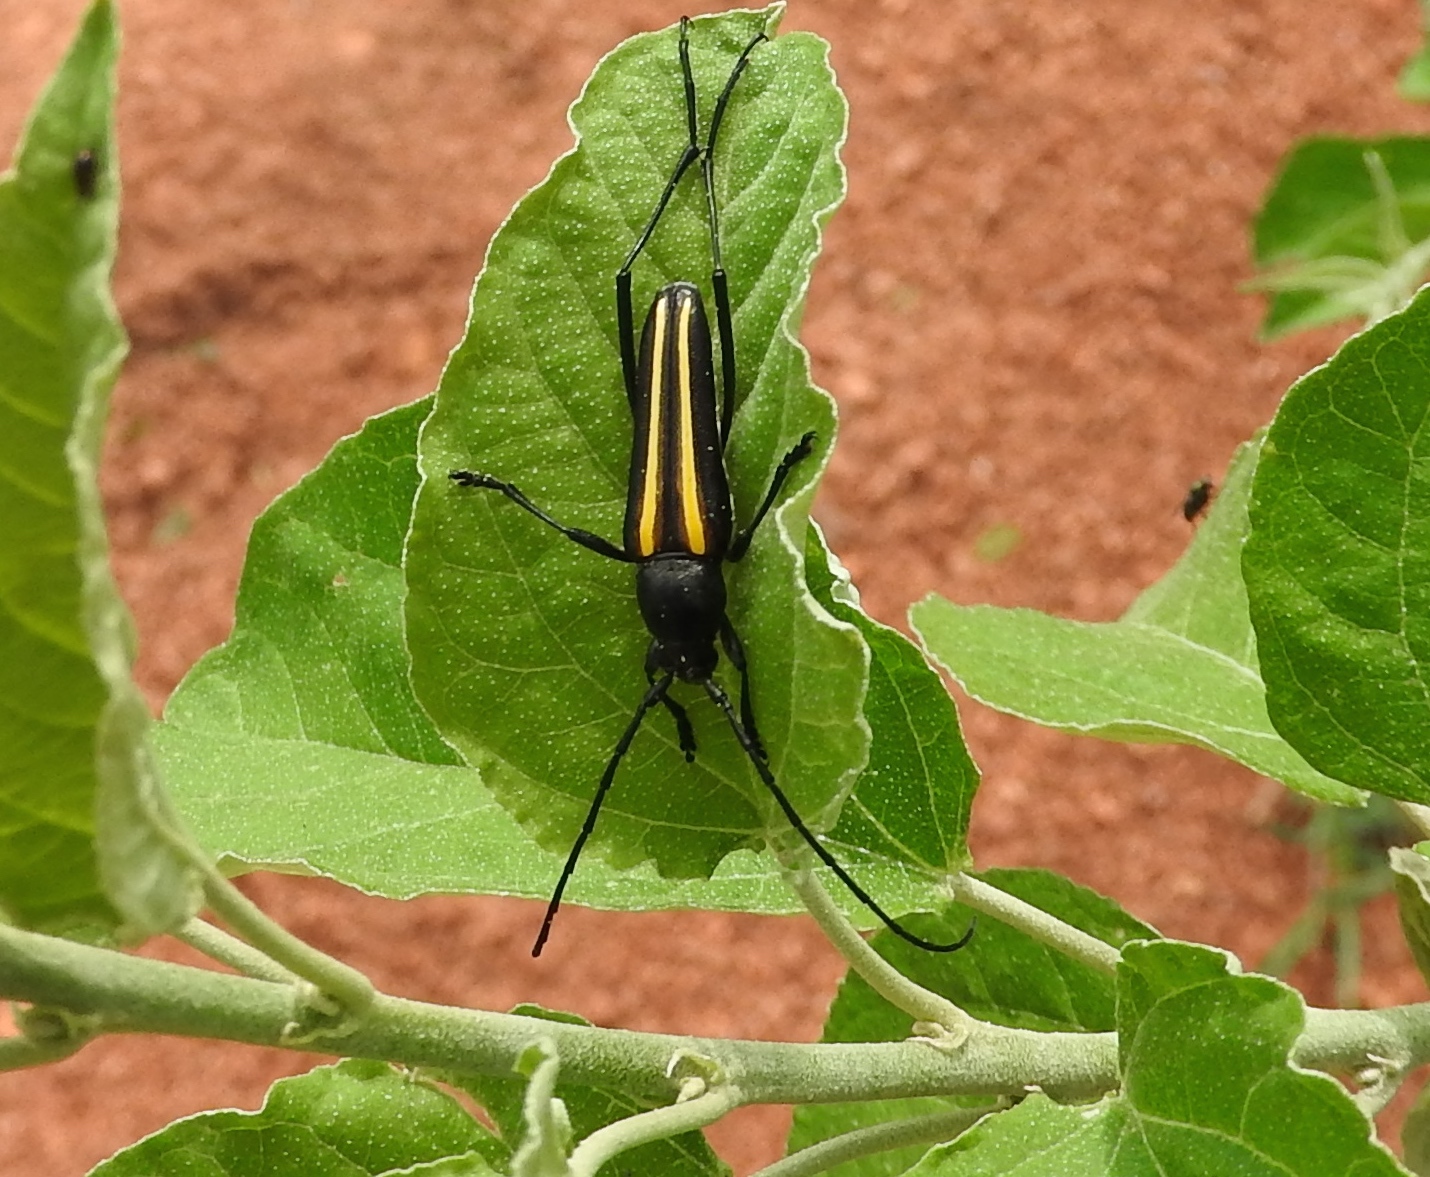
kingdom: Animalia
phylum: Arthropoda
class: Insecta
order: Coleoptera
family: Cerambycidae
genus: Lophalia
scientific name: Lophalia prolata
